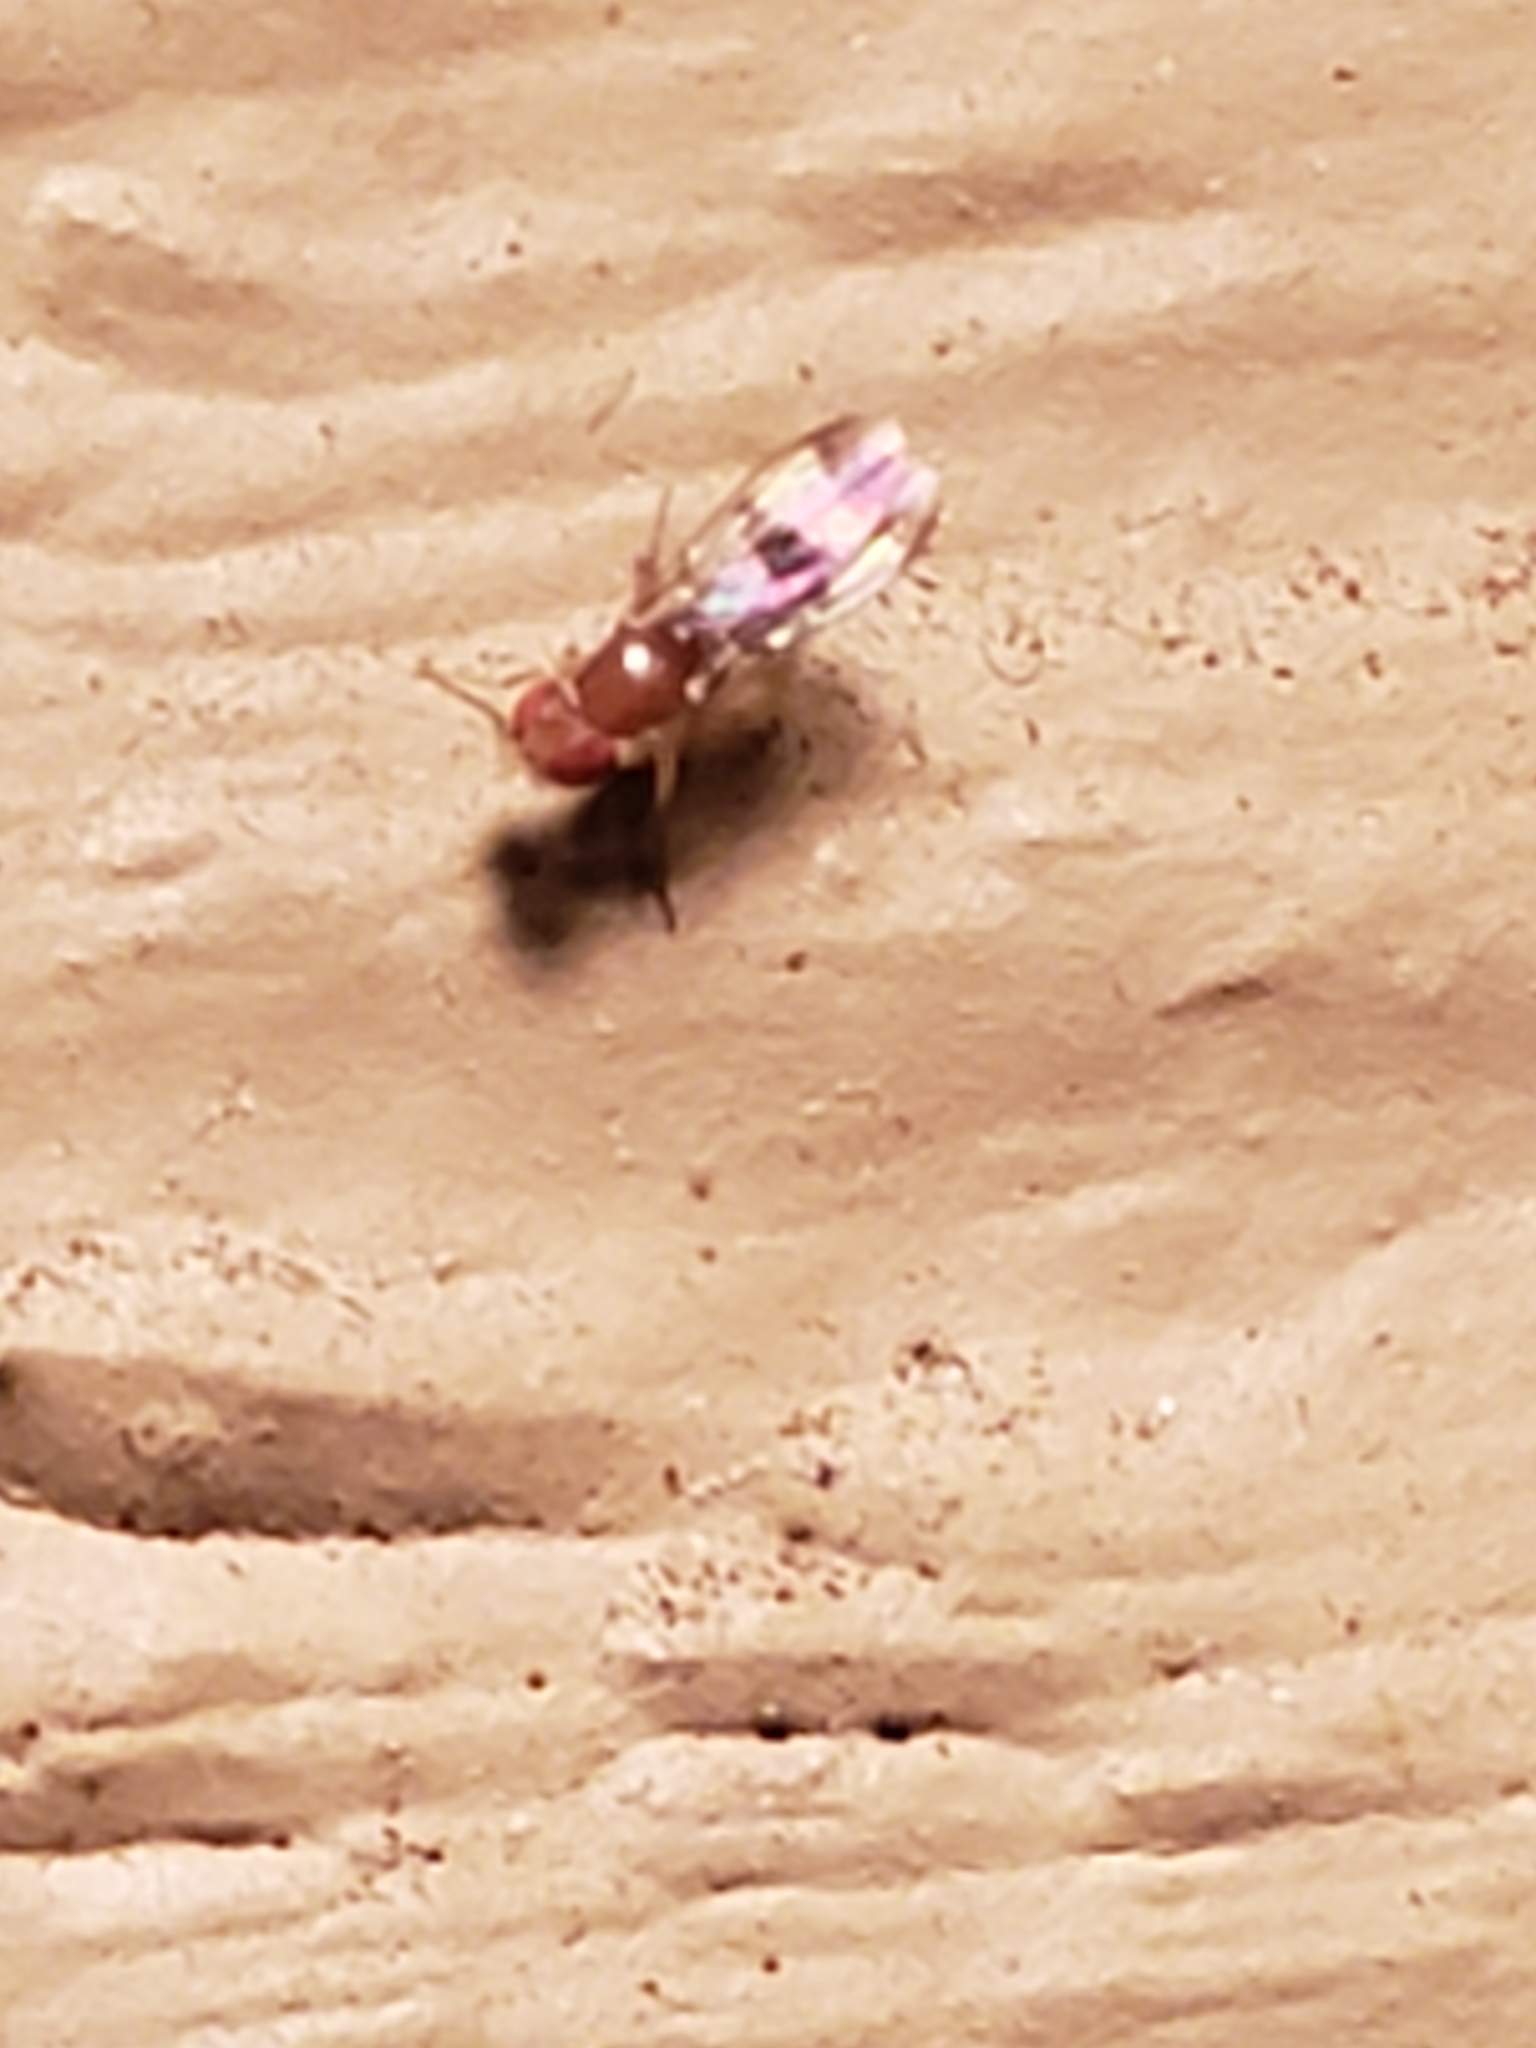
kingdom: Animalia
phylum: Arthropoda
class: Insecta
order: Diptera
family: Drosophilidae
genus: Chymomyza
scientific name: Chymomyza amoena
